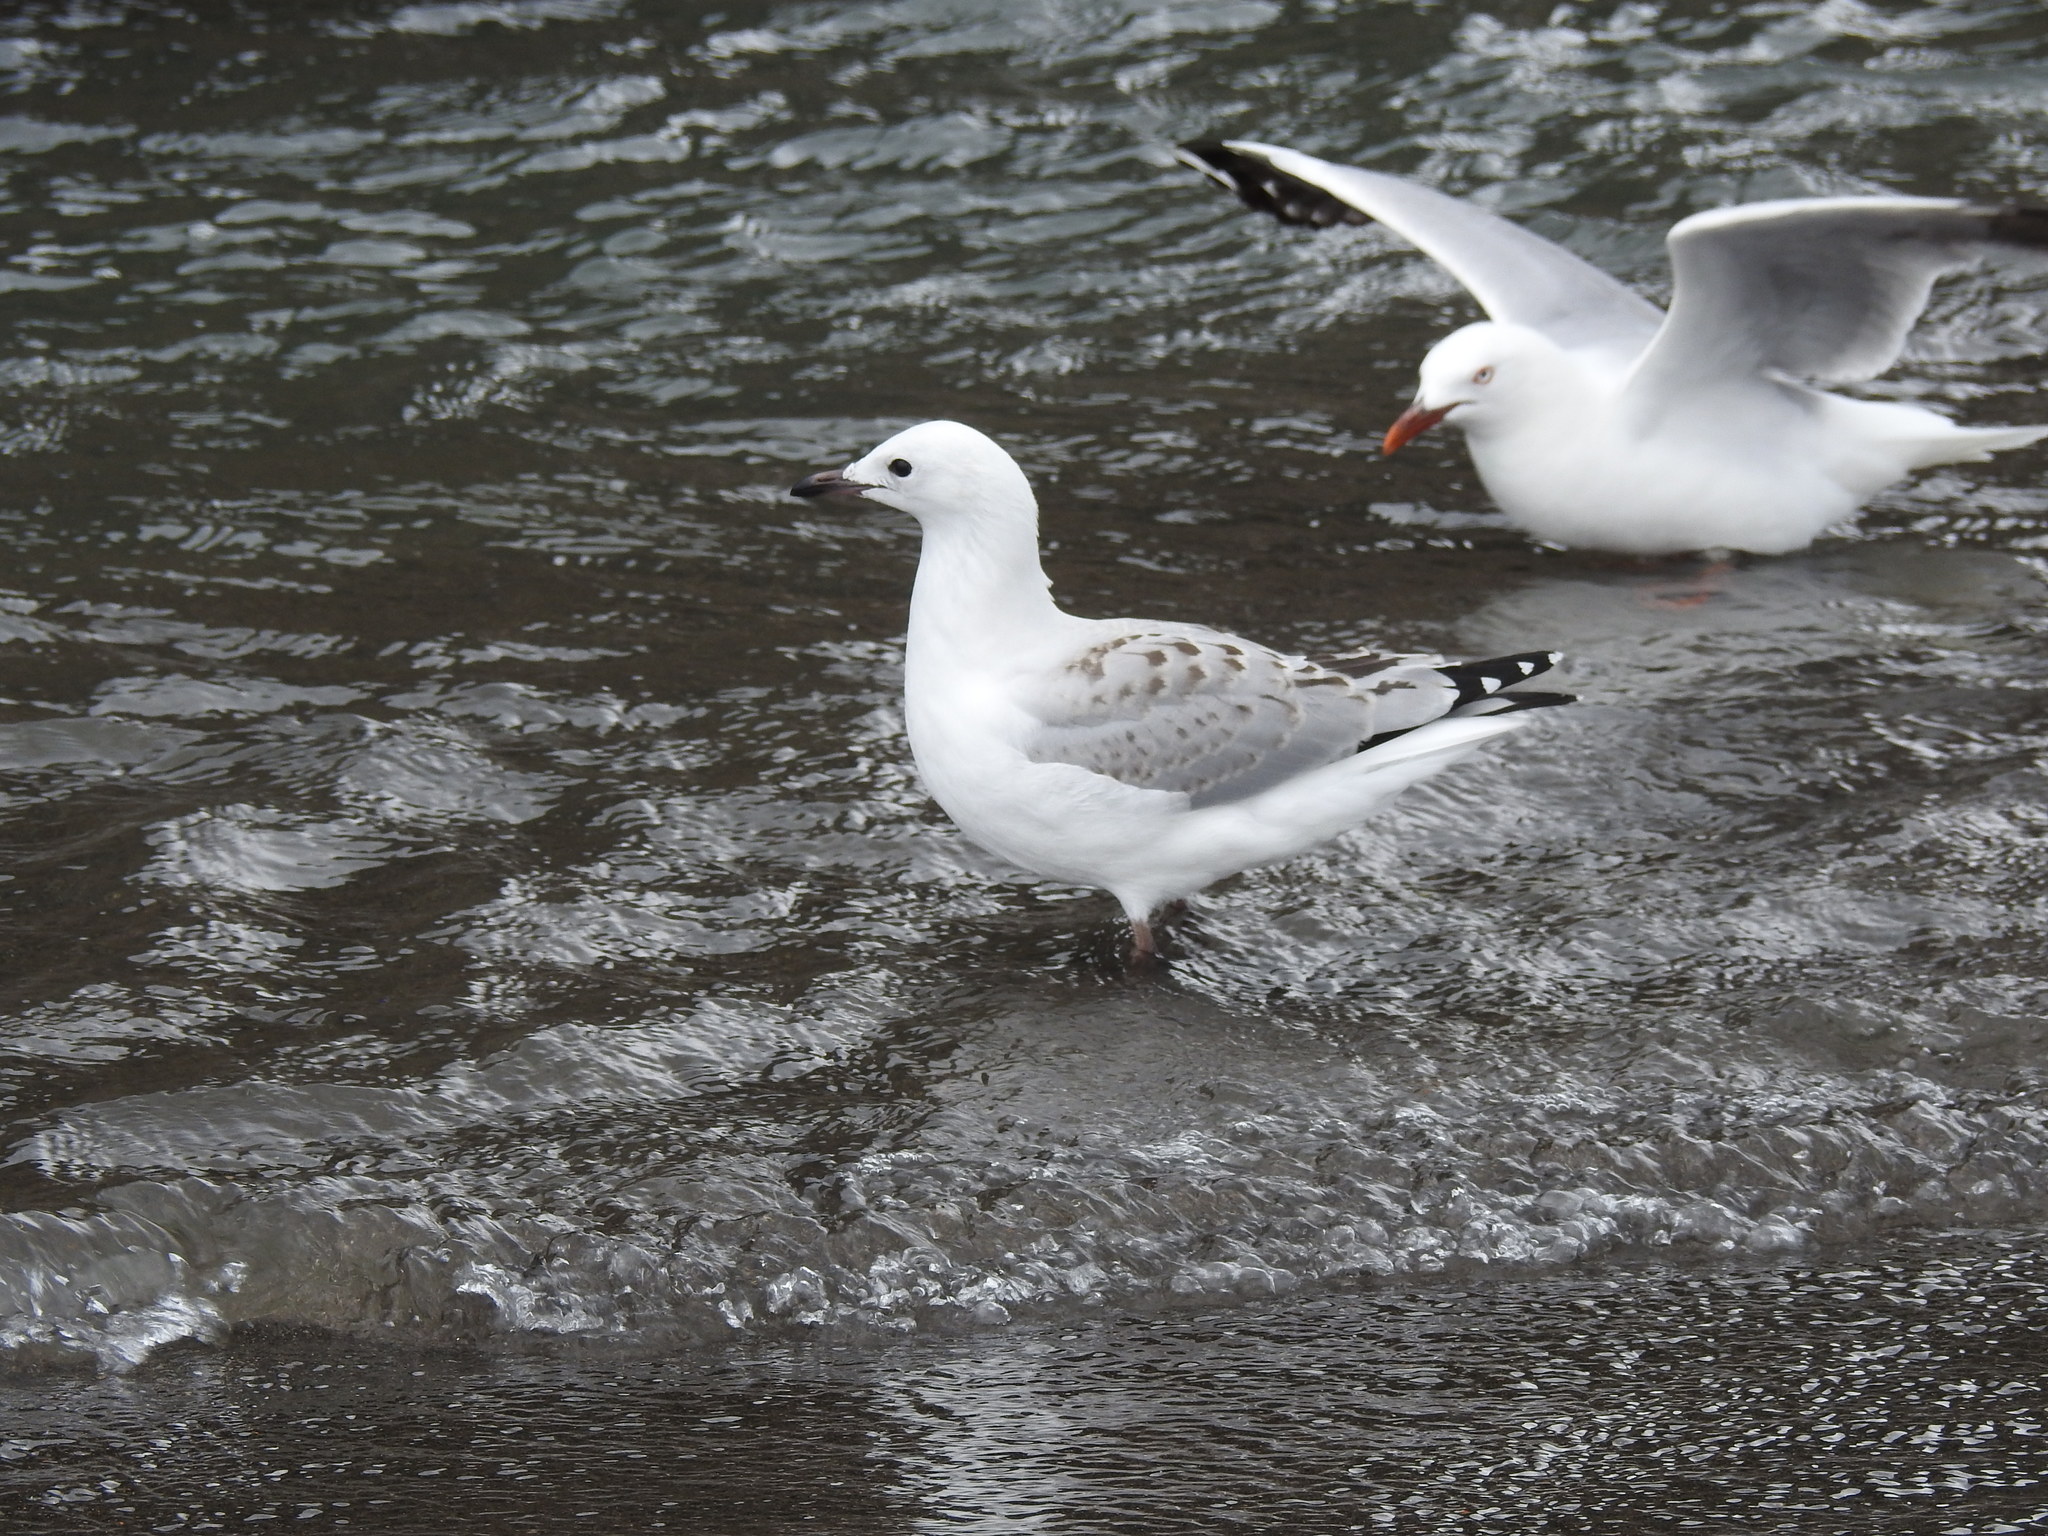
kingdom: Animalia
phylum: Chordata
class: Aves
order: Charadriiformes
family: Laridae
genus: Chroicocephalus
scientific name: Chroicocephalus novaehollandiae
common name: Silver gull
